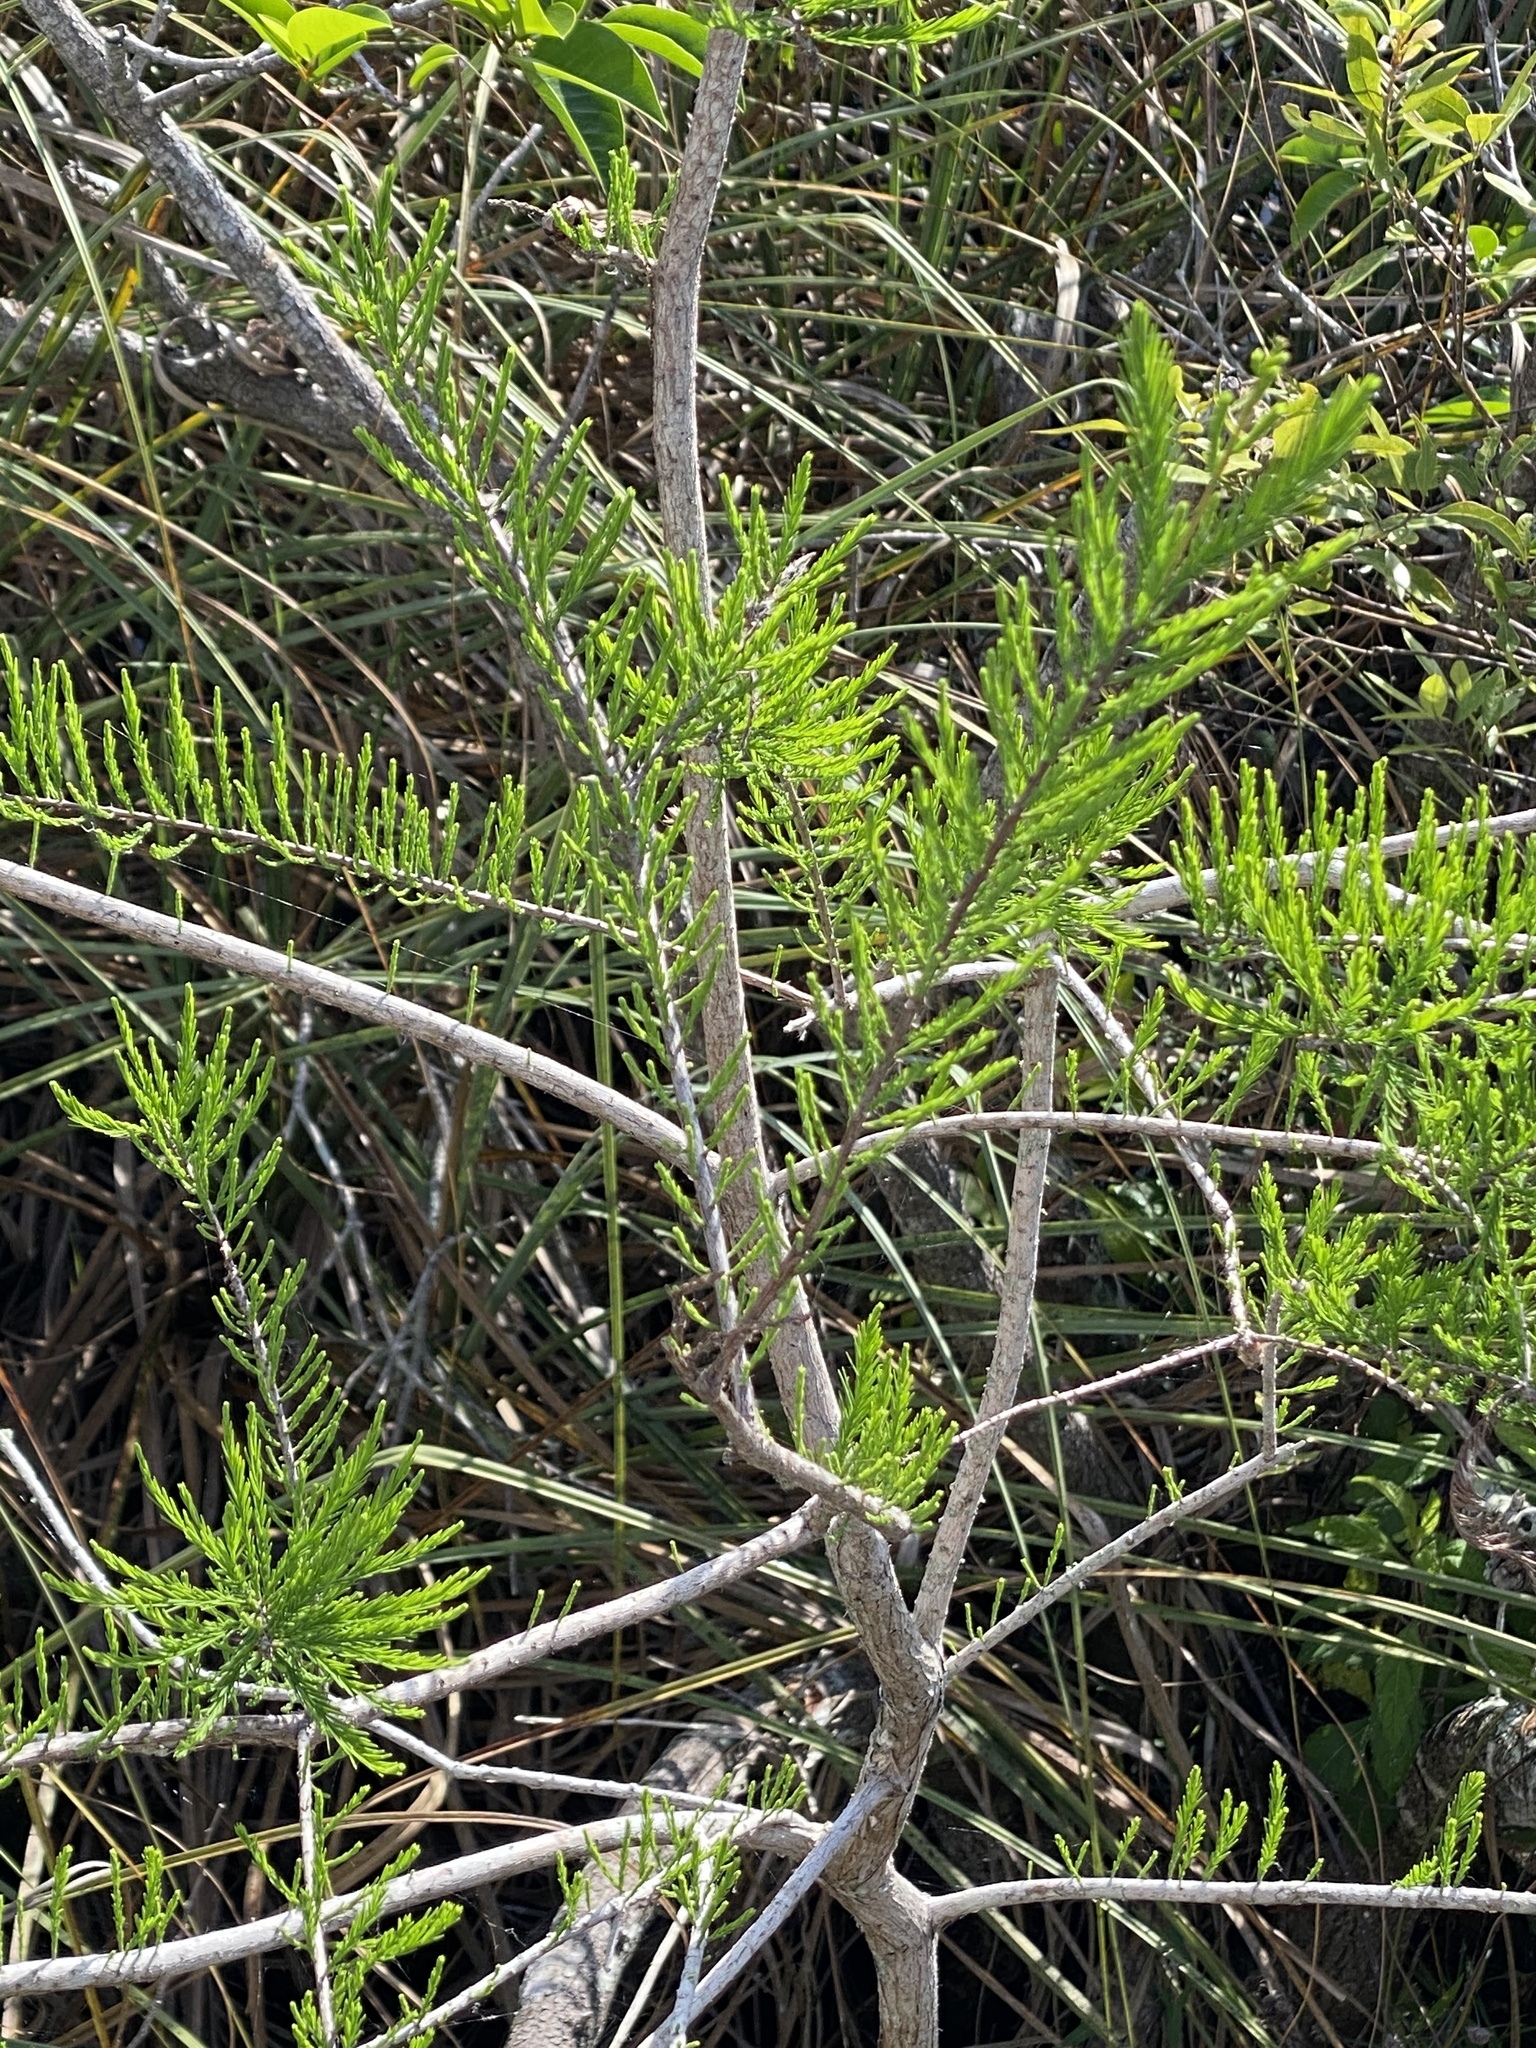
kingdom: Plantae
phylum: Tracheophyta
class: Pinopsida
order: Pinales
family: Cupressaceae
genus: Taxodium
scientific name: Taxodium distichum
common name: Bald cypress
